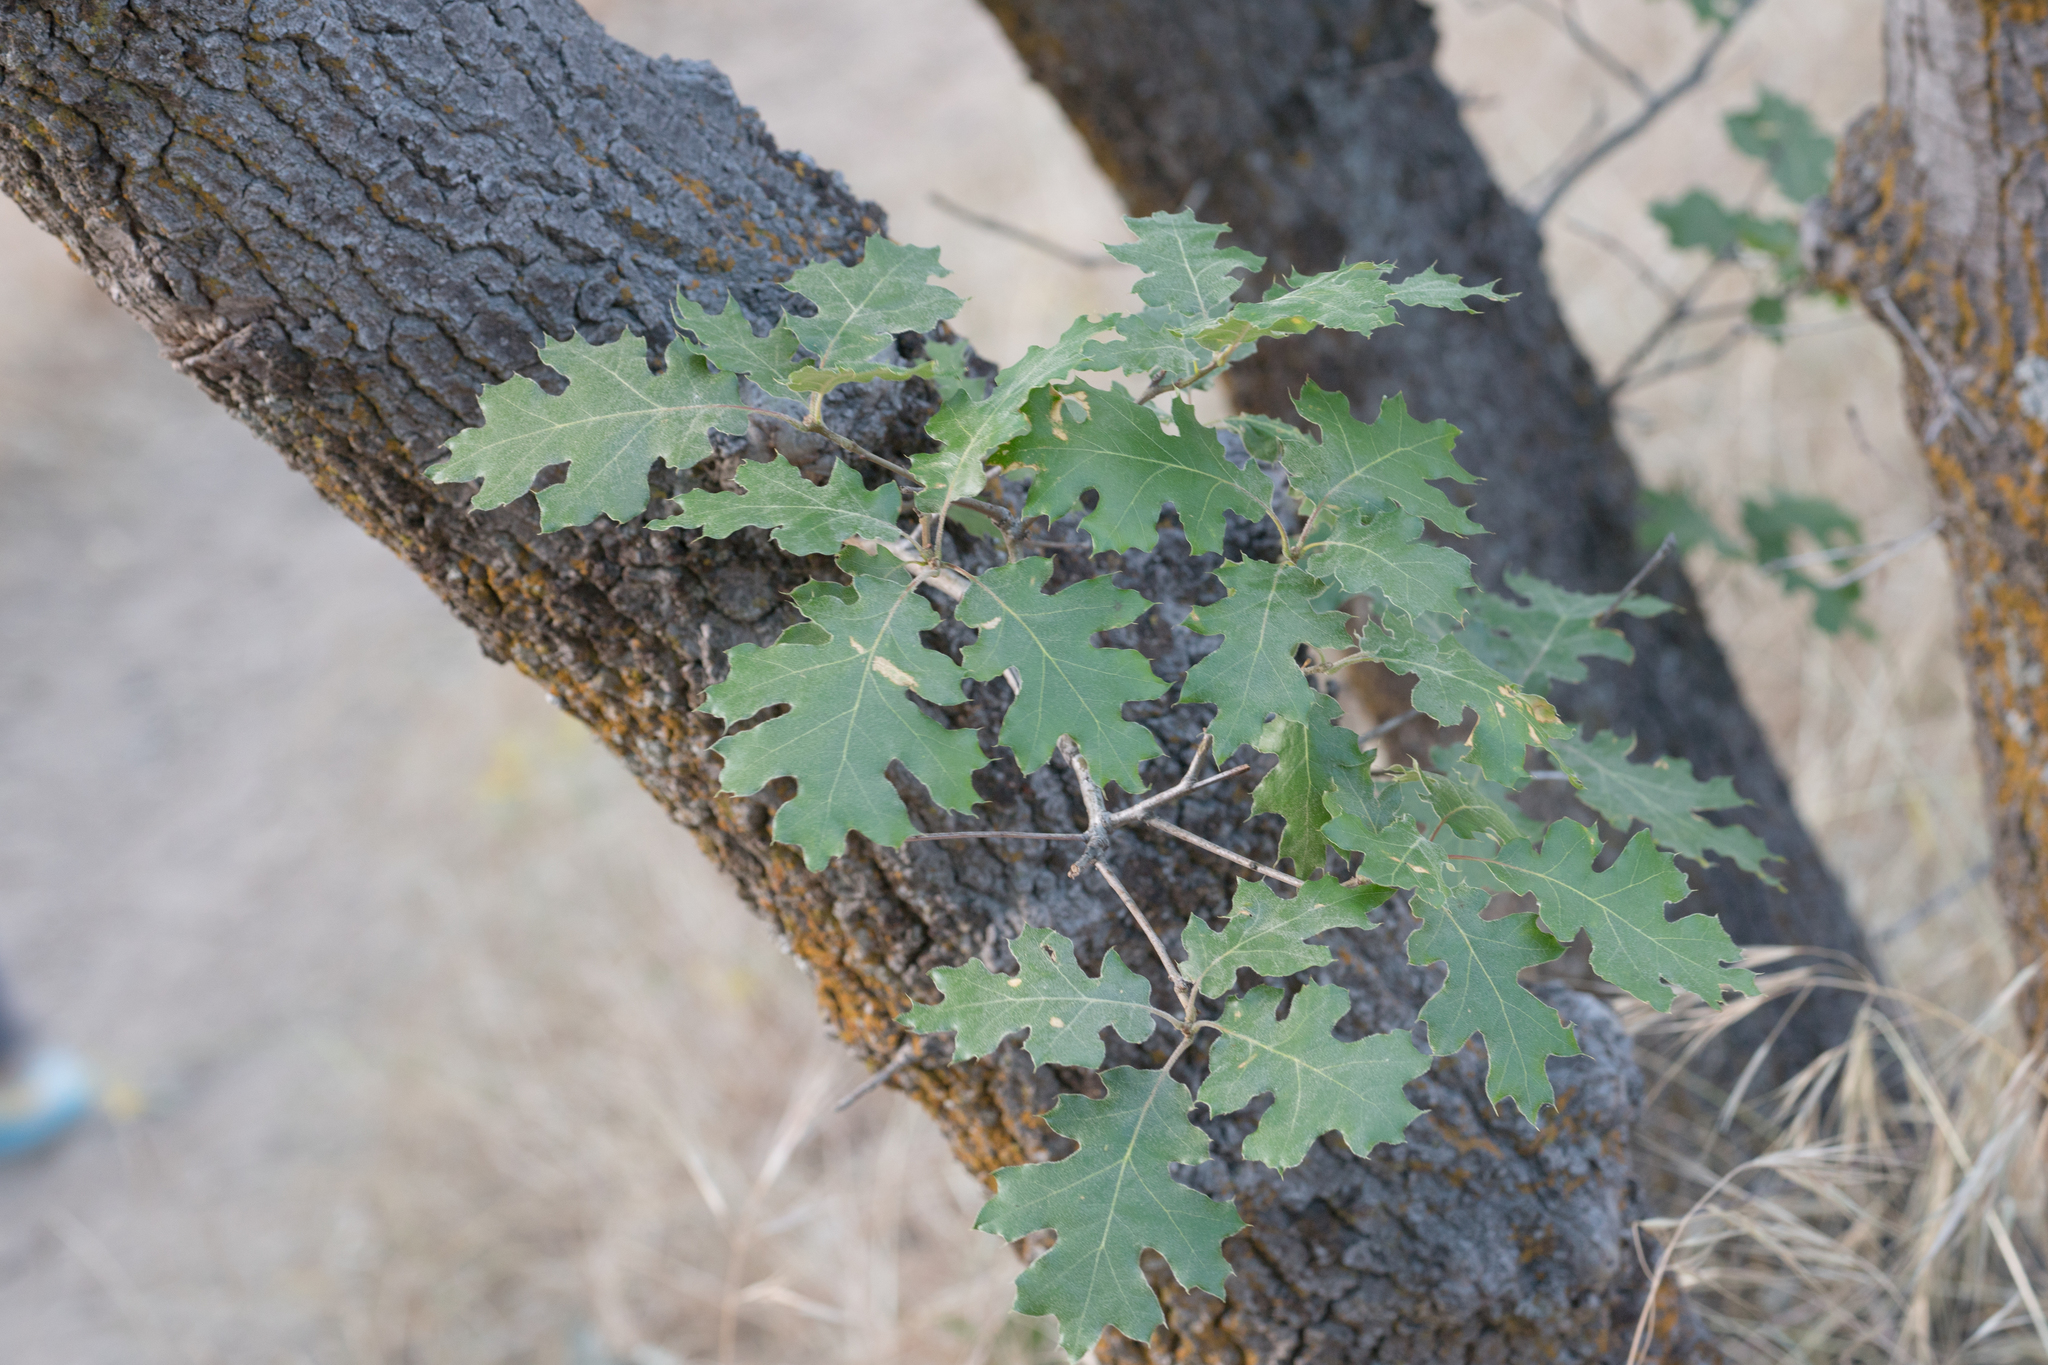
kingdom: Plantae
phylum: Tracheophyta
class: Magnoliopsida
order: Fagales
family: Fagaceae
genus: Quercus
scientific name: Quercus kelloggii
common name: California black oak
